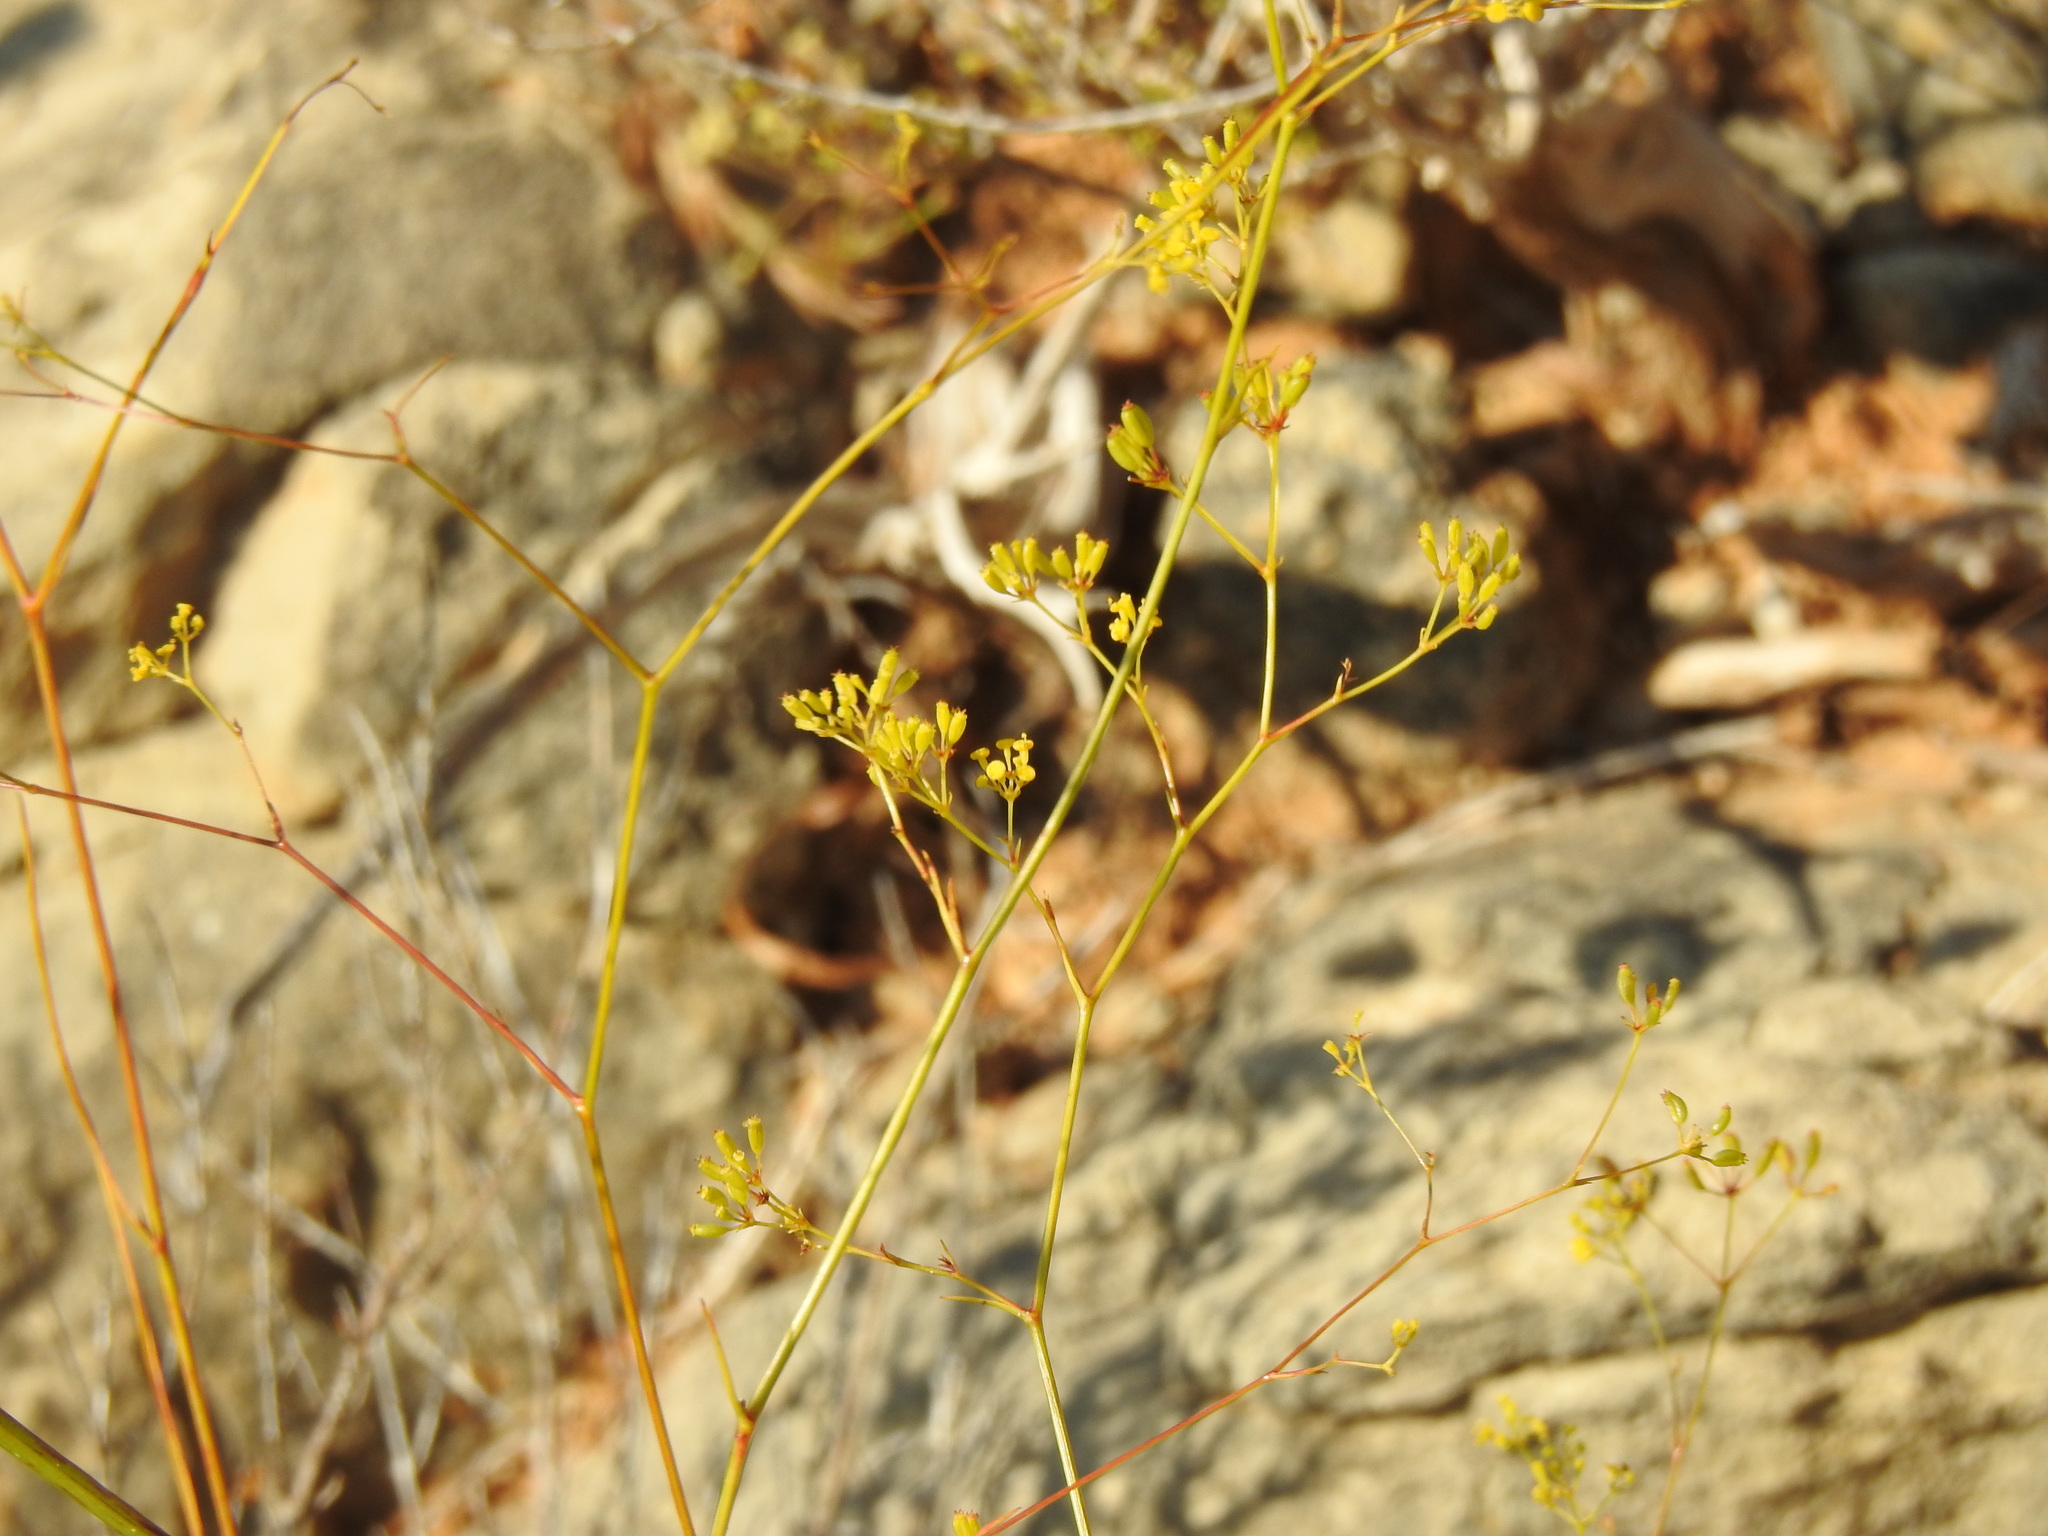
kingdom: Plantae
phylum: Tracheophyta
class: Magnoliopsida
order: Apiales
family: Apiaceae
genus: Bupleurum
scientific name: Bupleurum rigidum
